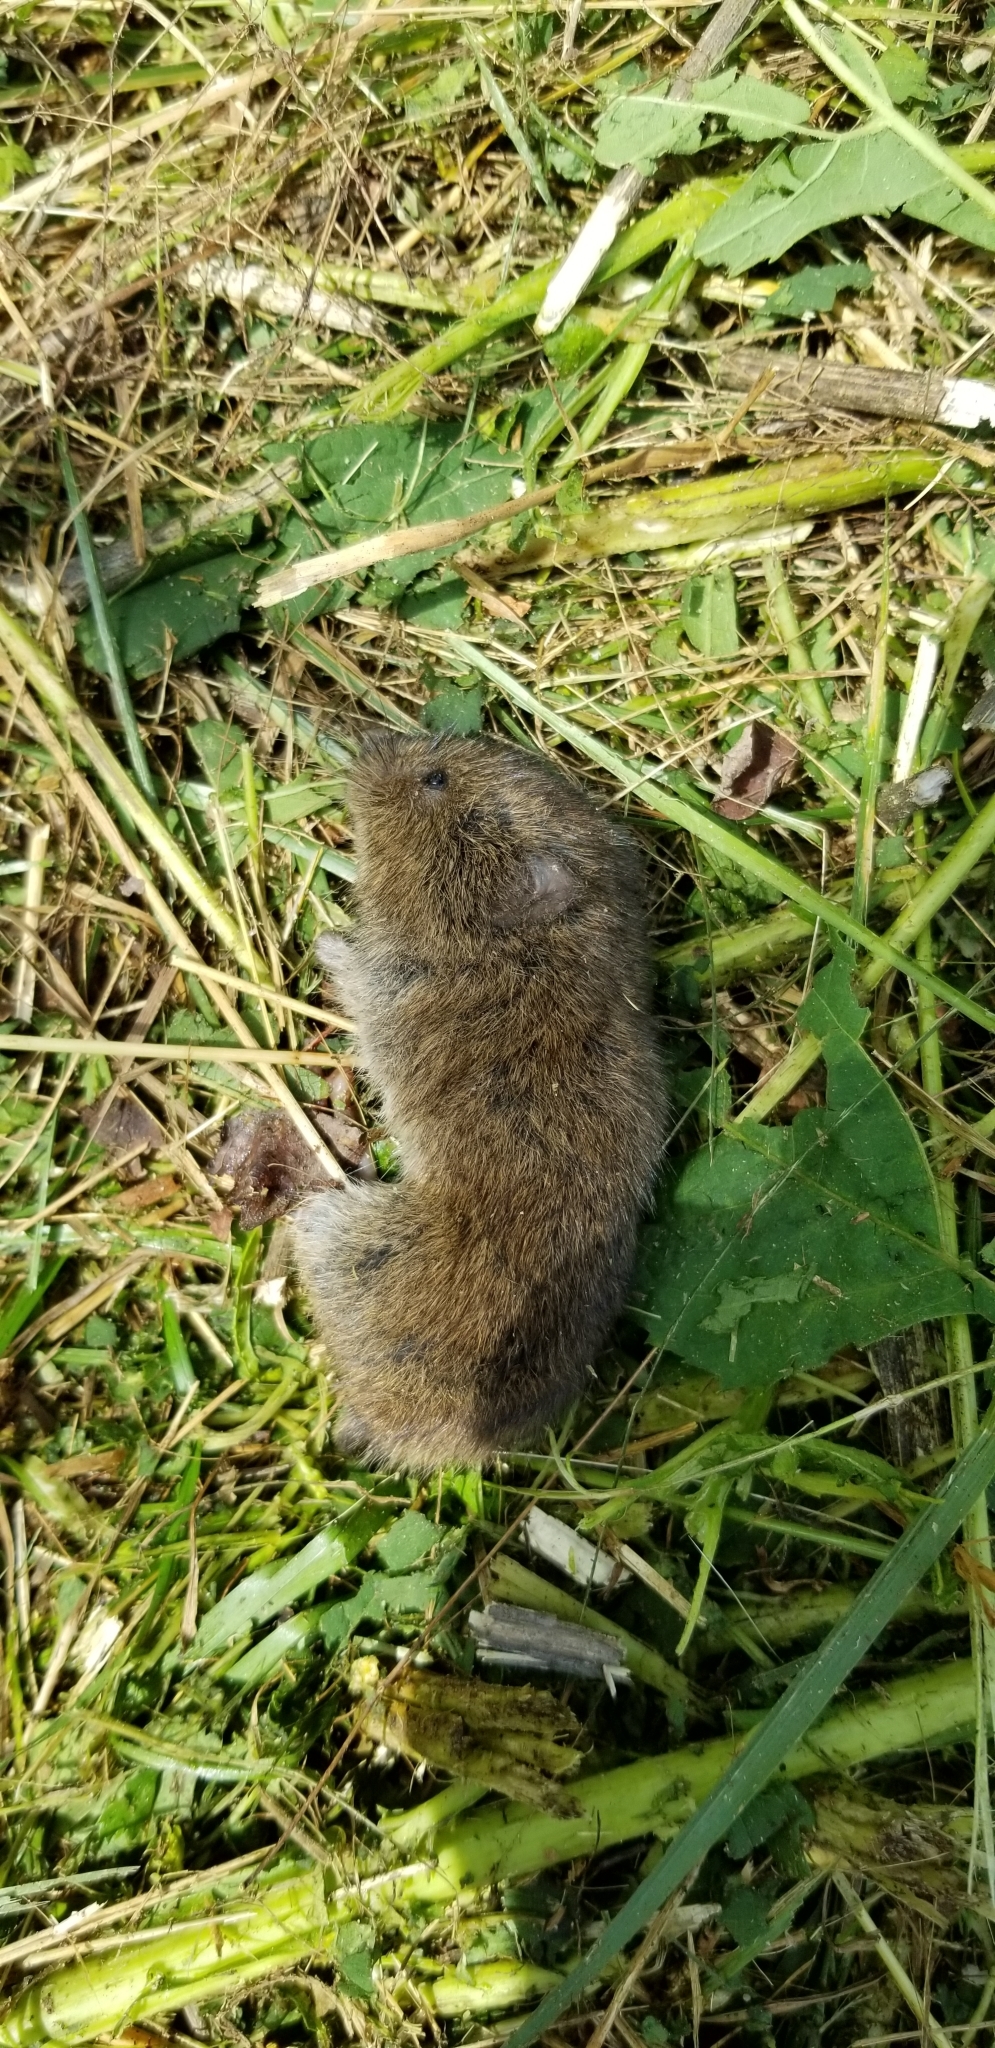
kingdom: Animalia
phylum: Chordata
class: Mammalia
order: Rodentia
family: Cricetidae
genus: Microtus
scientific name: Microtus pennsylvanicus
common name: Meadow vole
